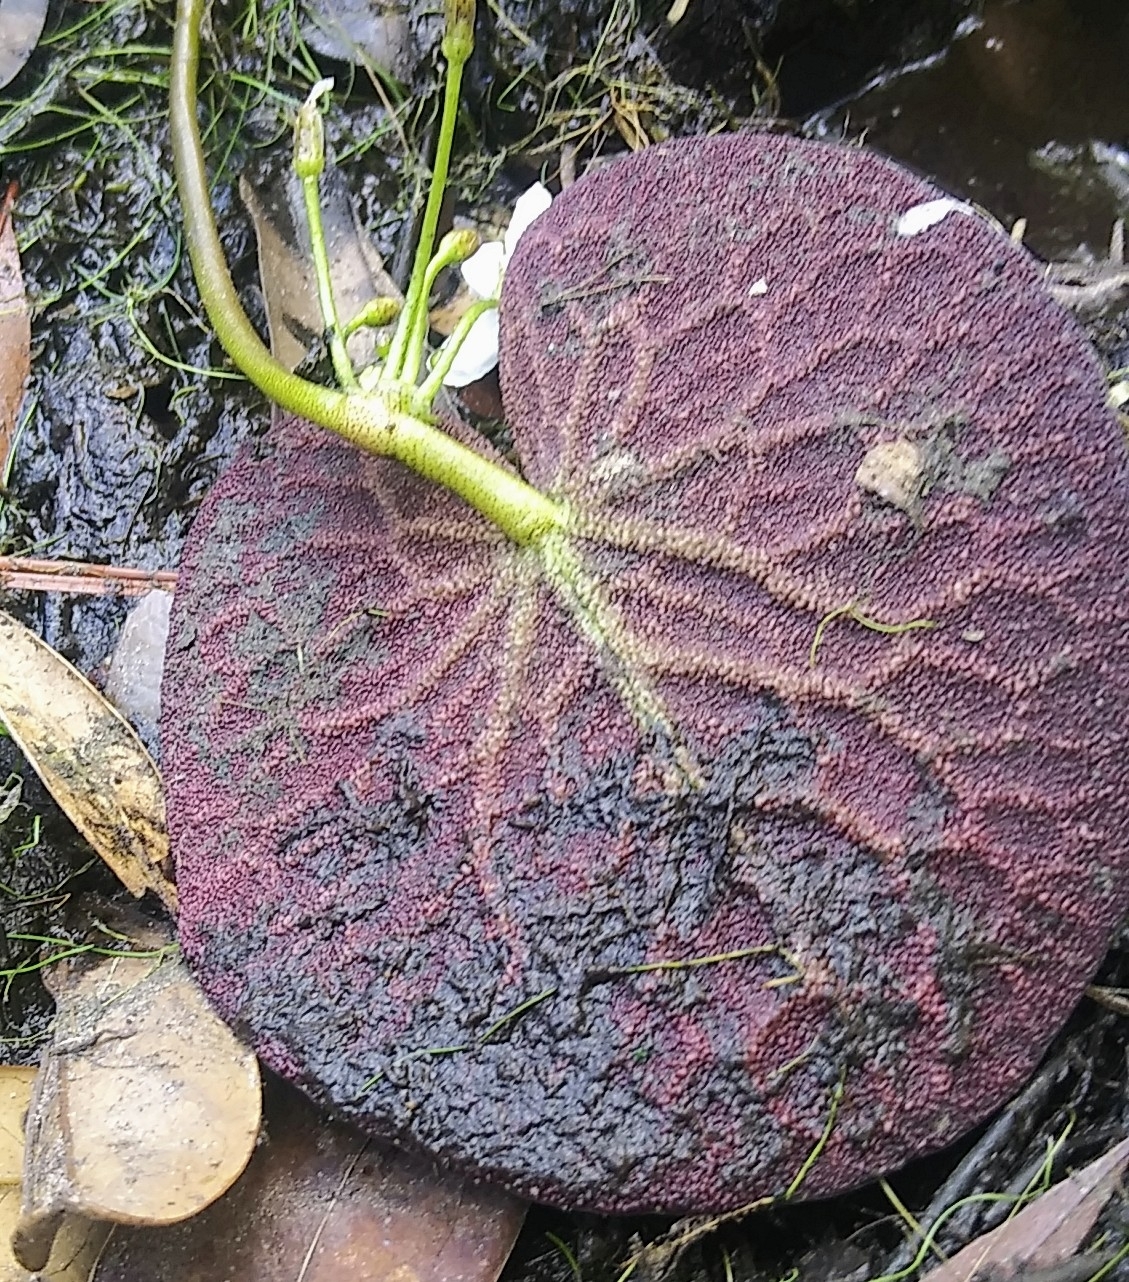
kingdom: Plantae
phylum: Tracheophyta
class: Magnoliopsida
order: Asterales
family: Menyanthaceae
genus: Nymphoides
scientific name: Nymphoides aquatica
